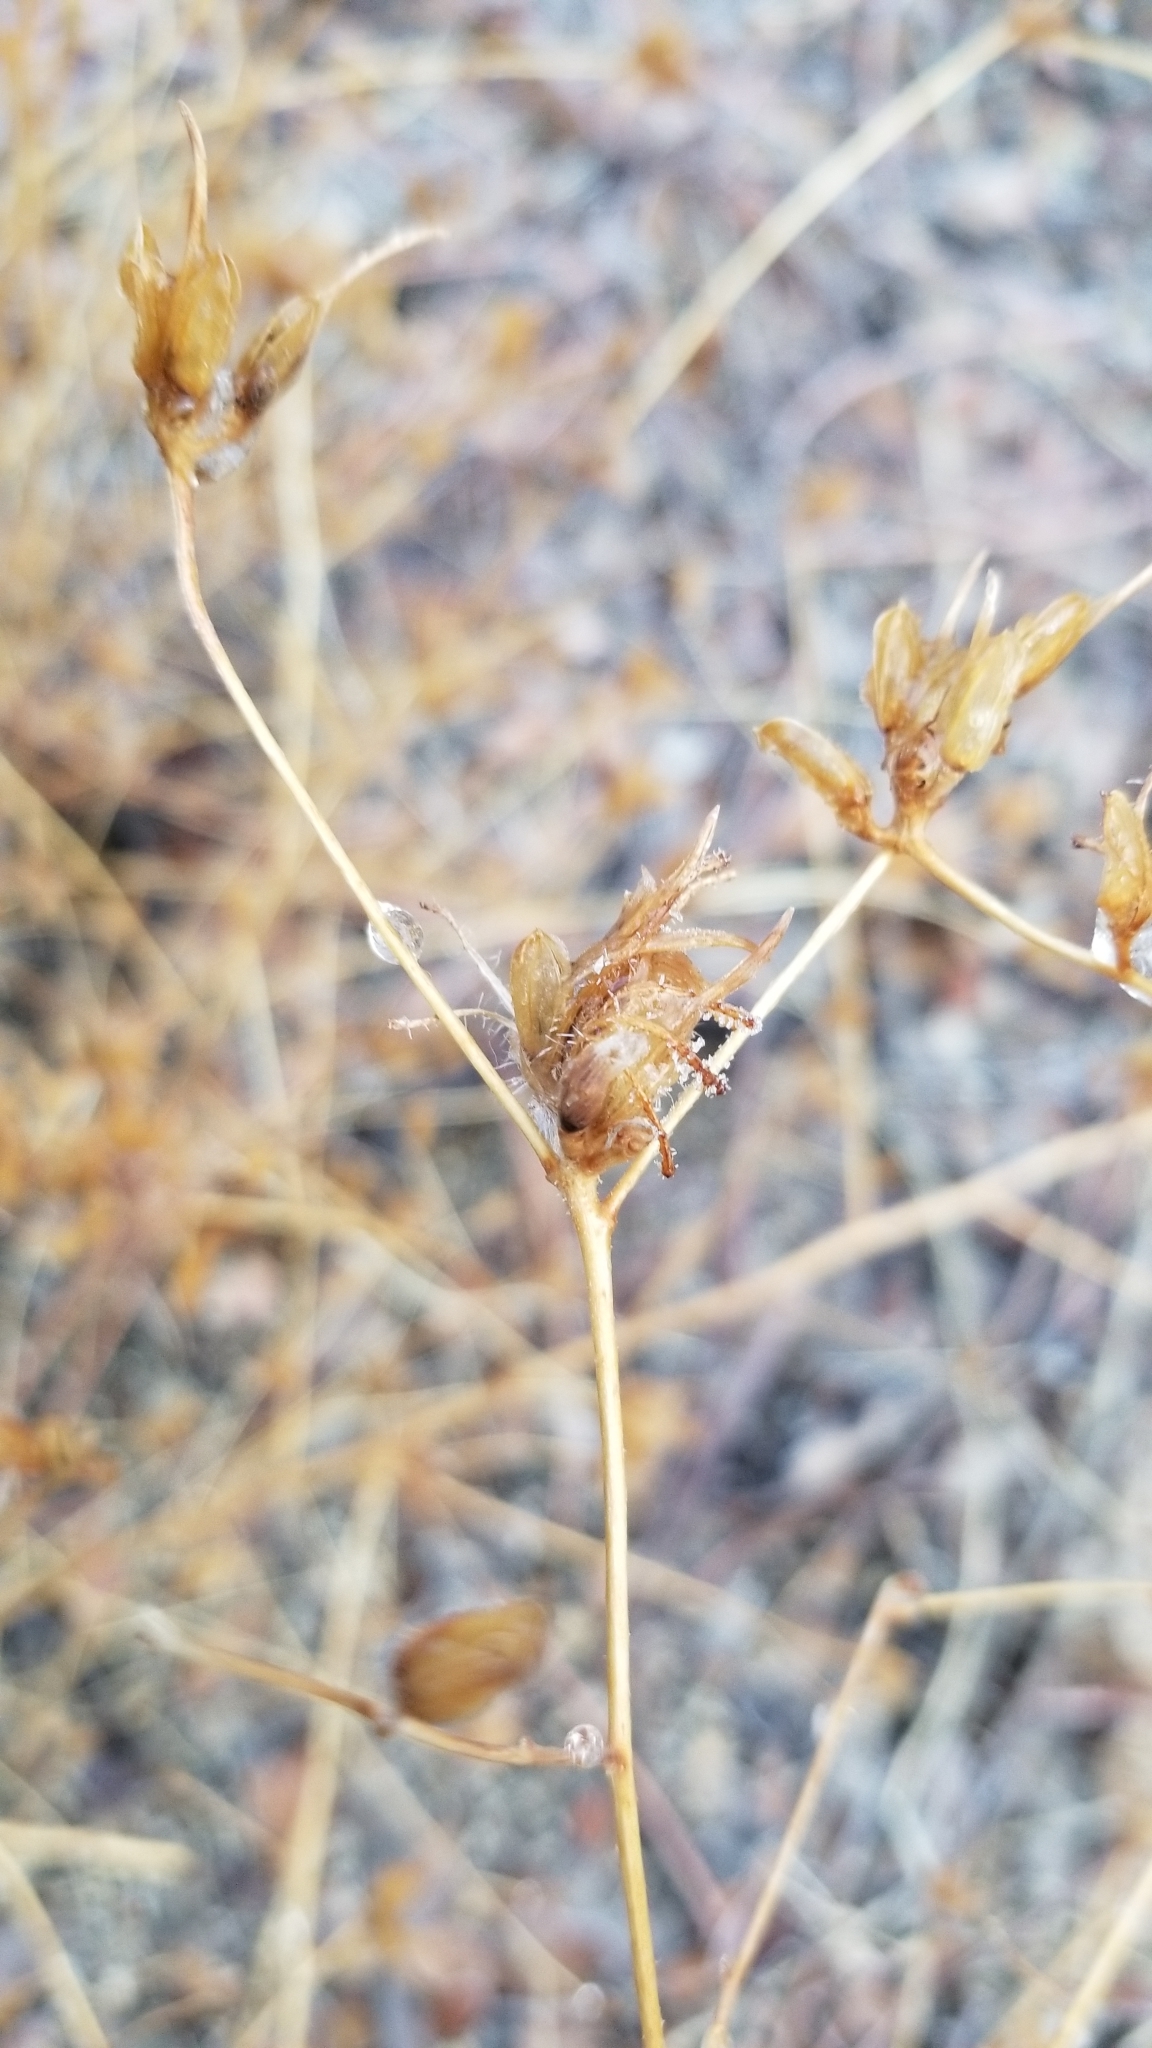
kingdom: Plantae
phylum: Tracheophyta
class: Magnoliopsida
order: Lamiales
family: Orobanchaceae
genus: Cordylanthus
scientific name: Cordylanthus rigidus
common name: Stiff-branch bird's-beak
